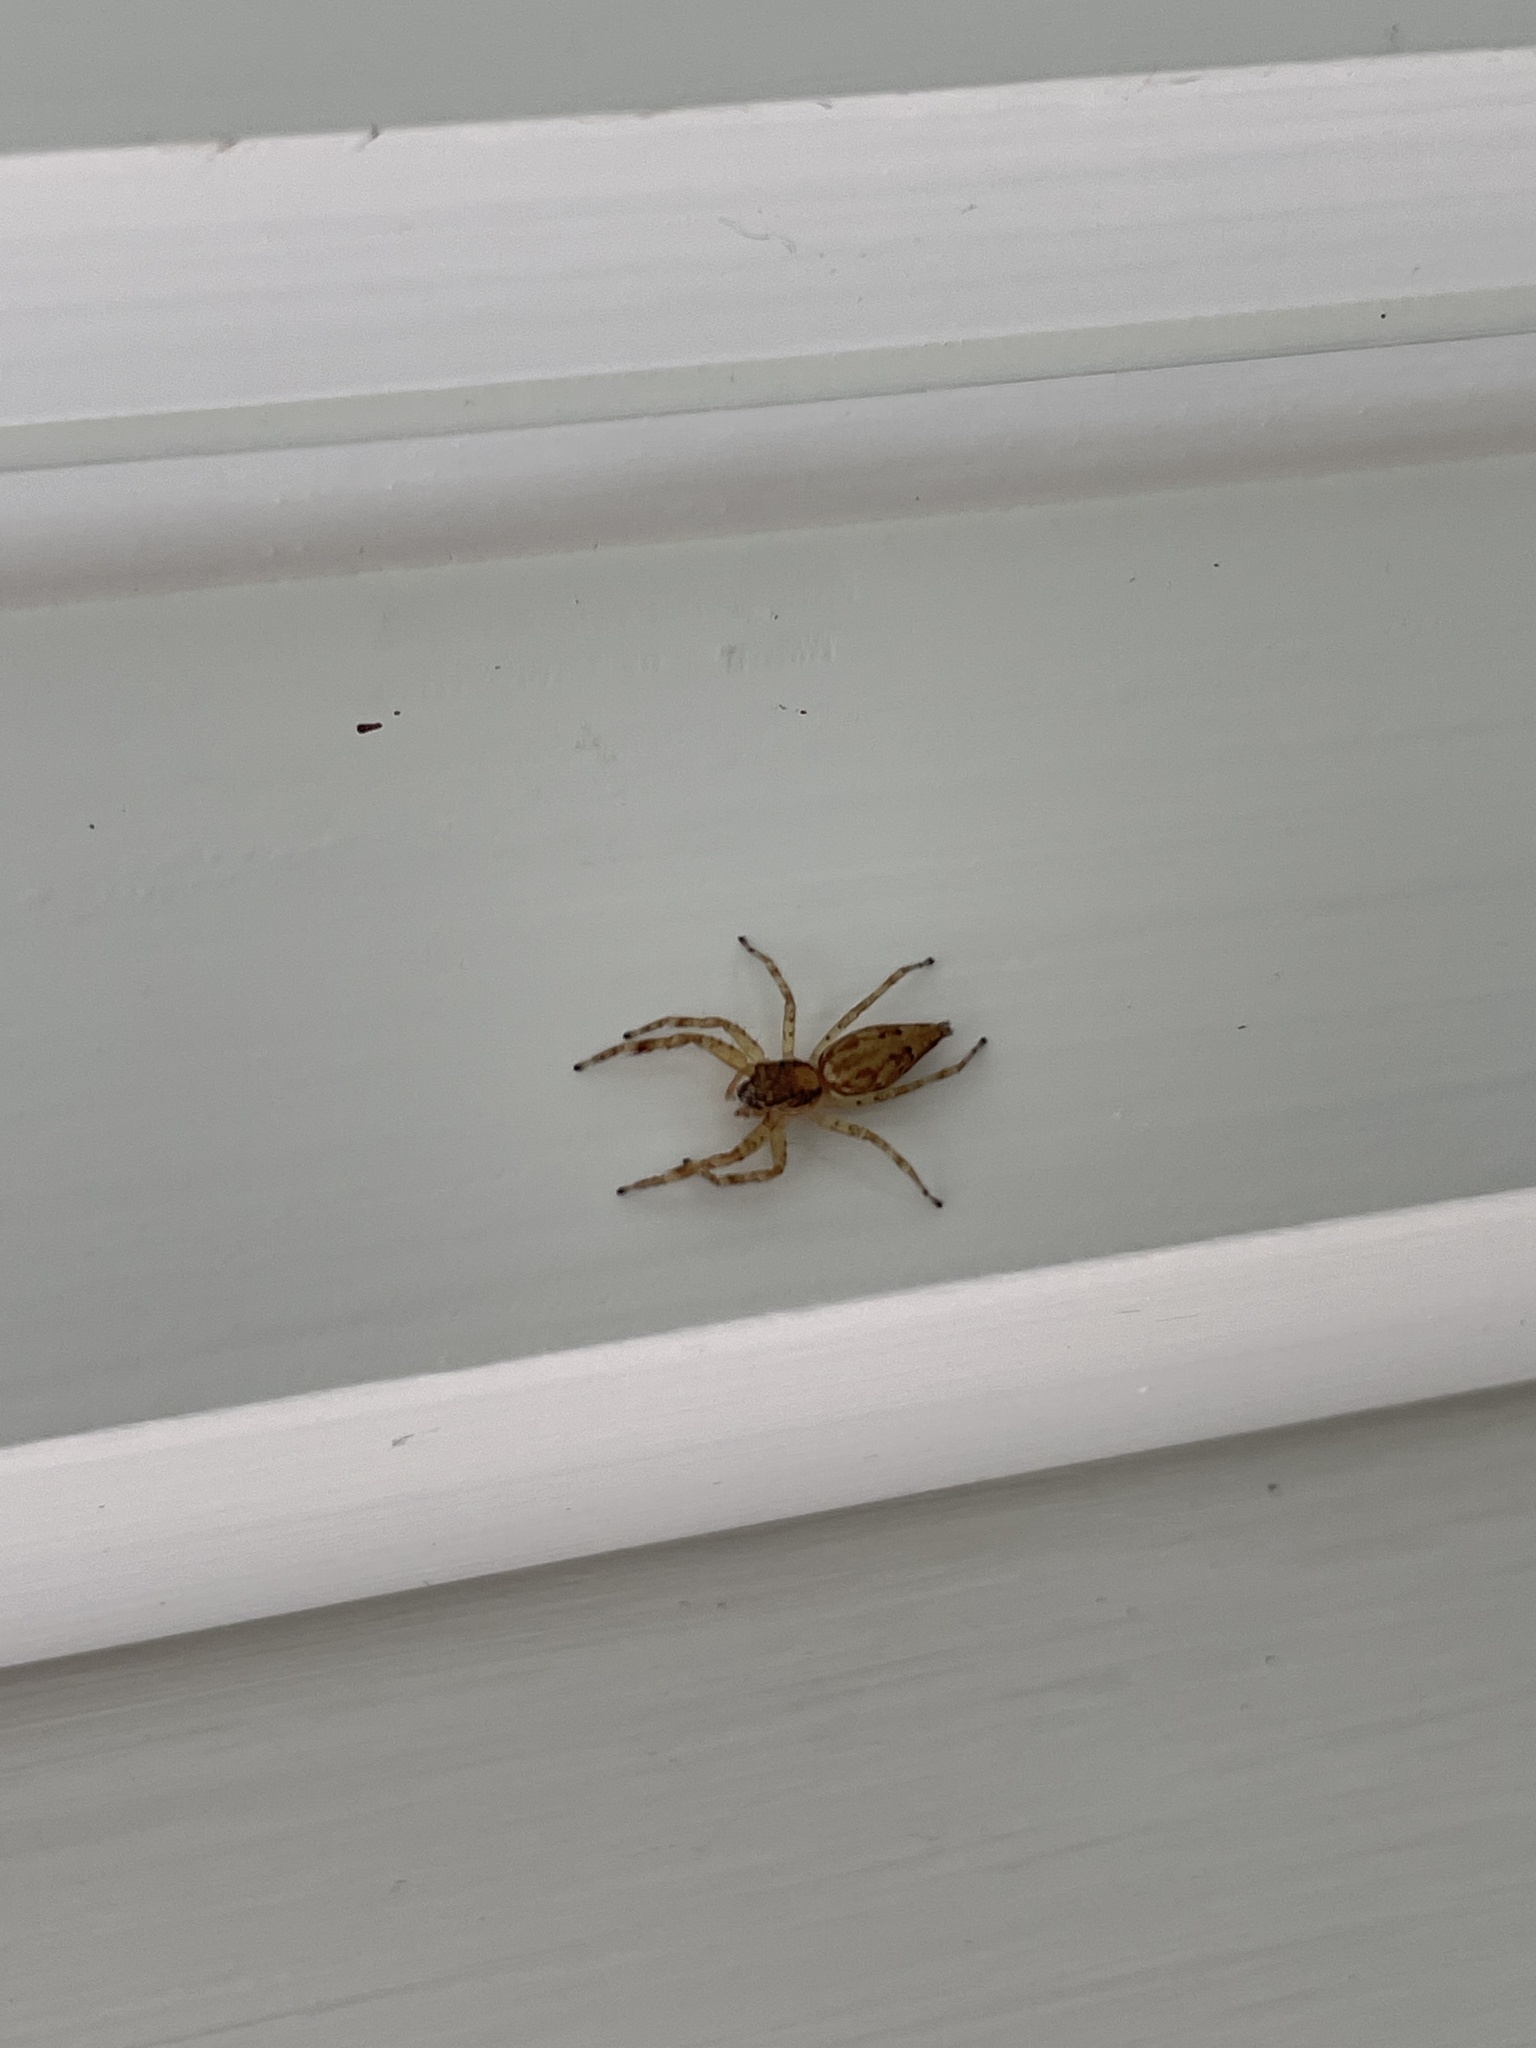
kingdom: Animalia
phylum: Arthropoda
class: Arachnida
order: Araneae
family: Salticidae
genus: Helpis
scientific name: Helpis minitabunda
